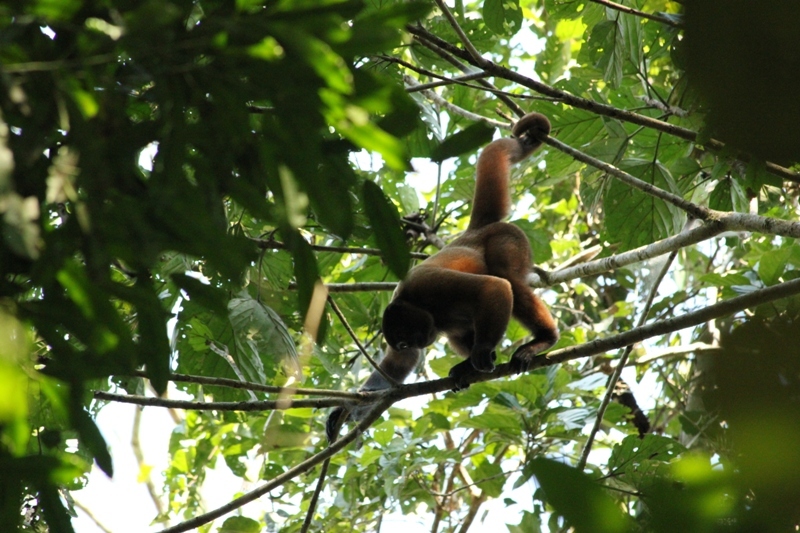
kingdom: Animalia
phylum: Chordata
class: Mammalia
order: Primates
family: Atelidae
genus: Lagothrix
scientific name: Lagothrix lagothricha
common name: Brown woolly monkey
